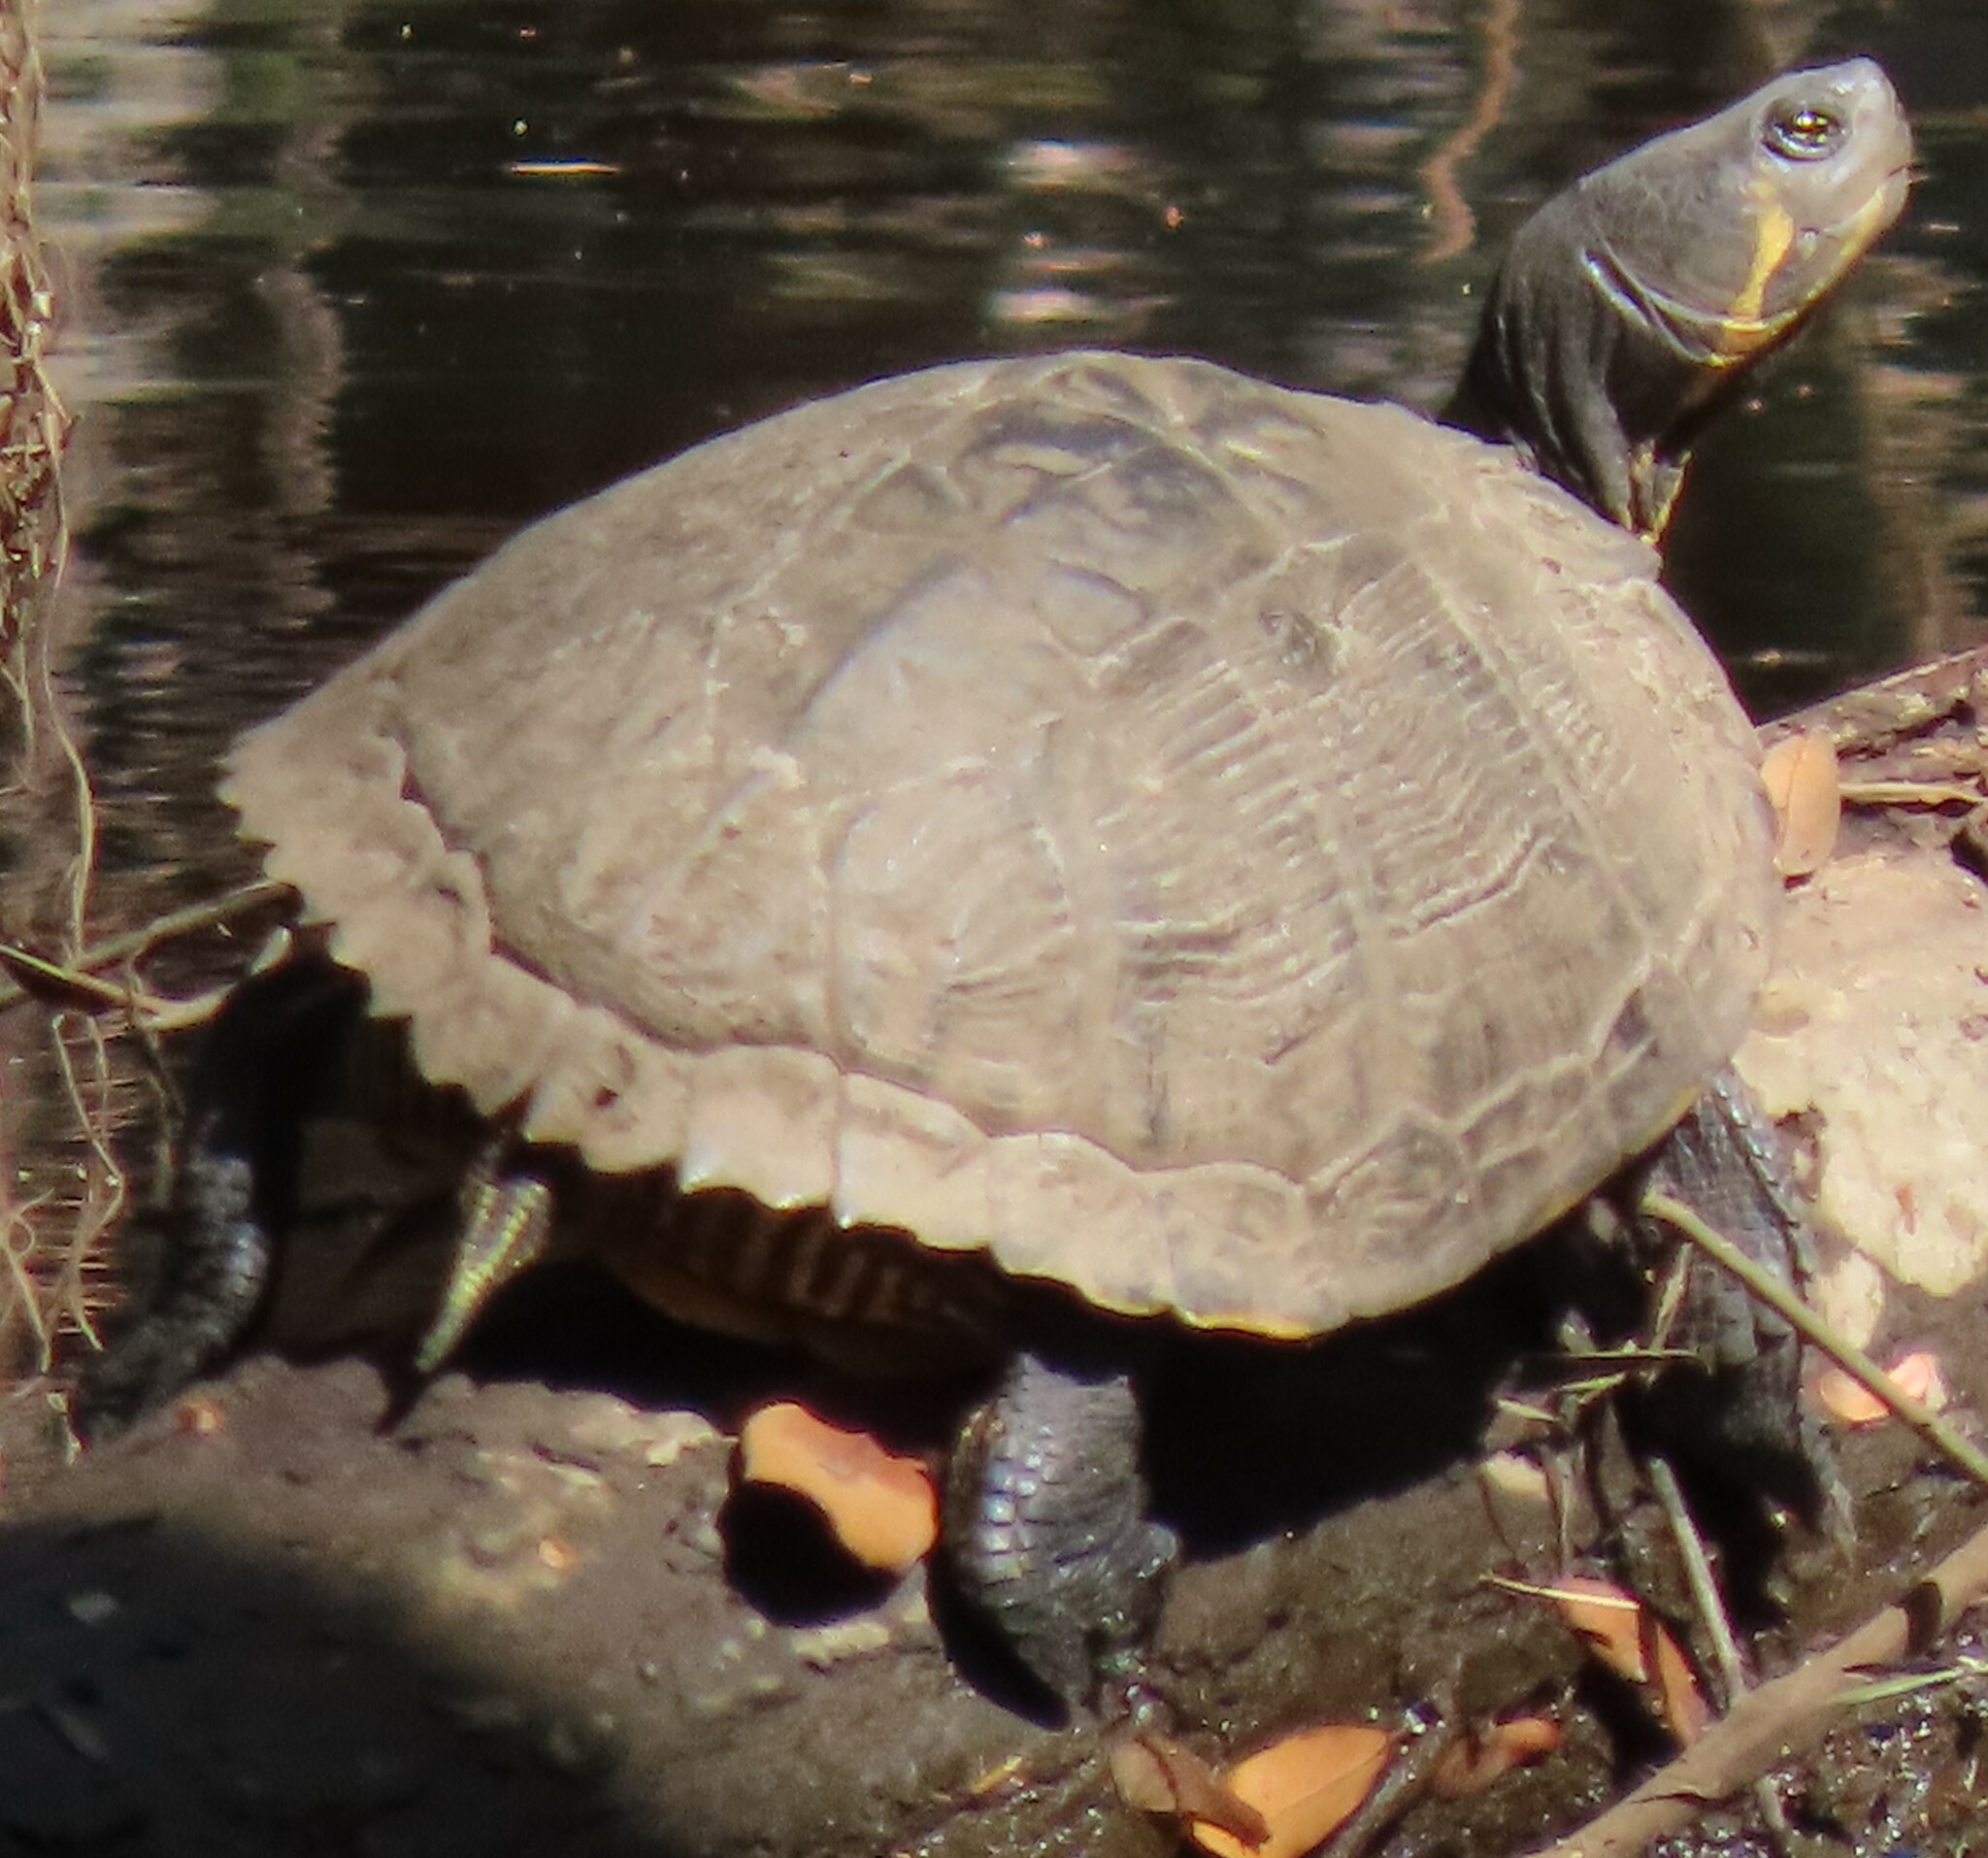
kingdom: Animalia
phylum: Chordata
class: Testudines
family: Emydidae
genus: Trachemys
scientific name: Trachemys scripta
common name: Slider
